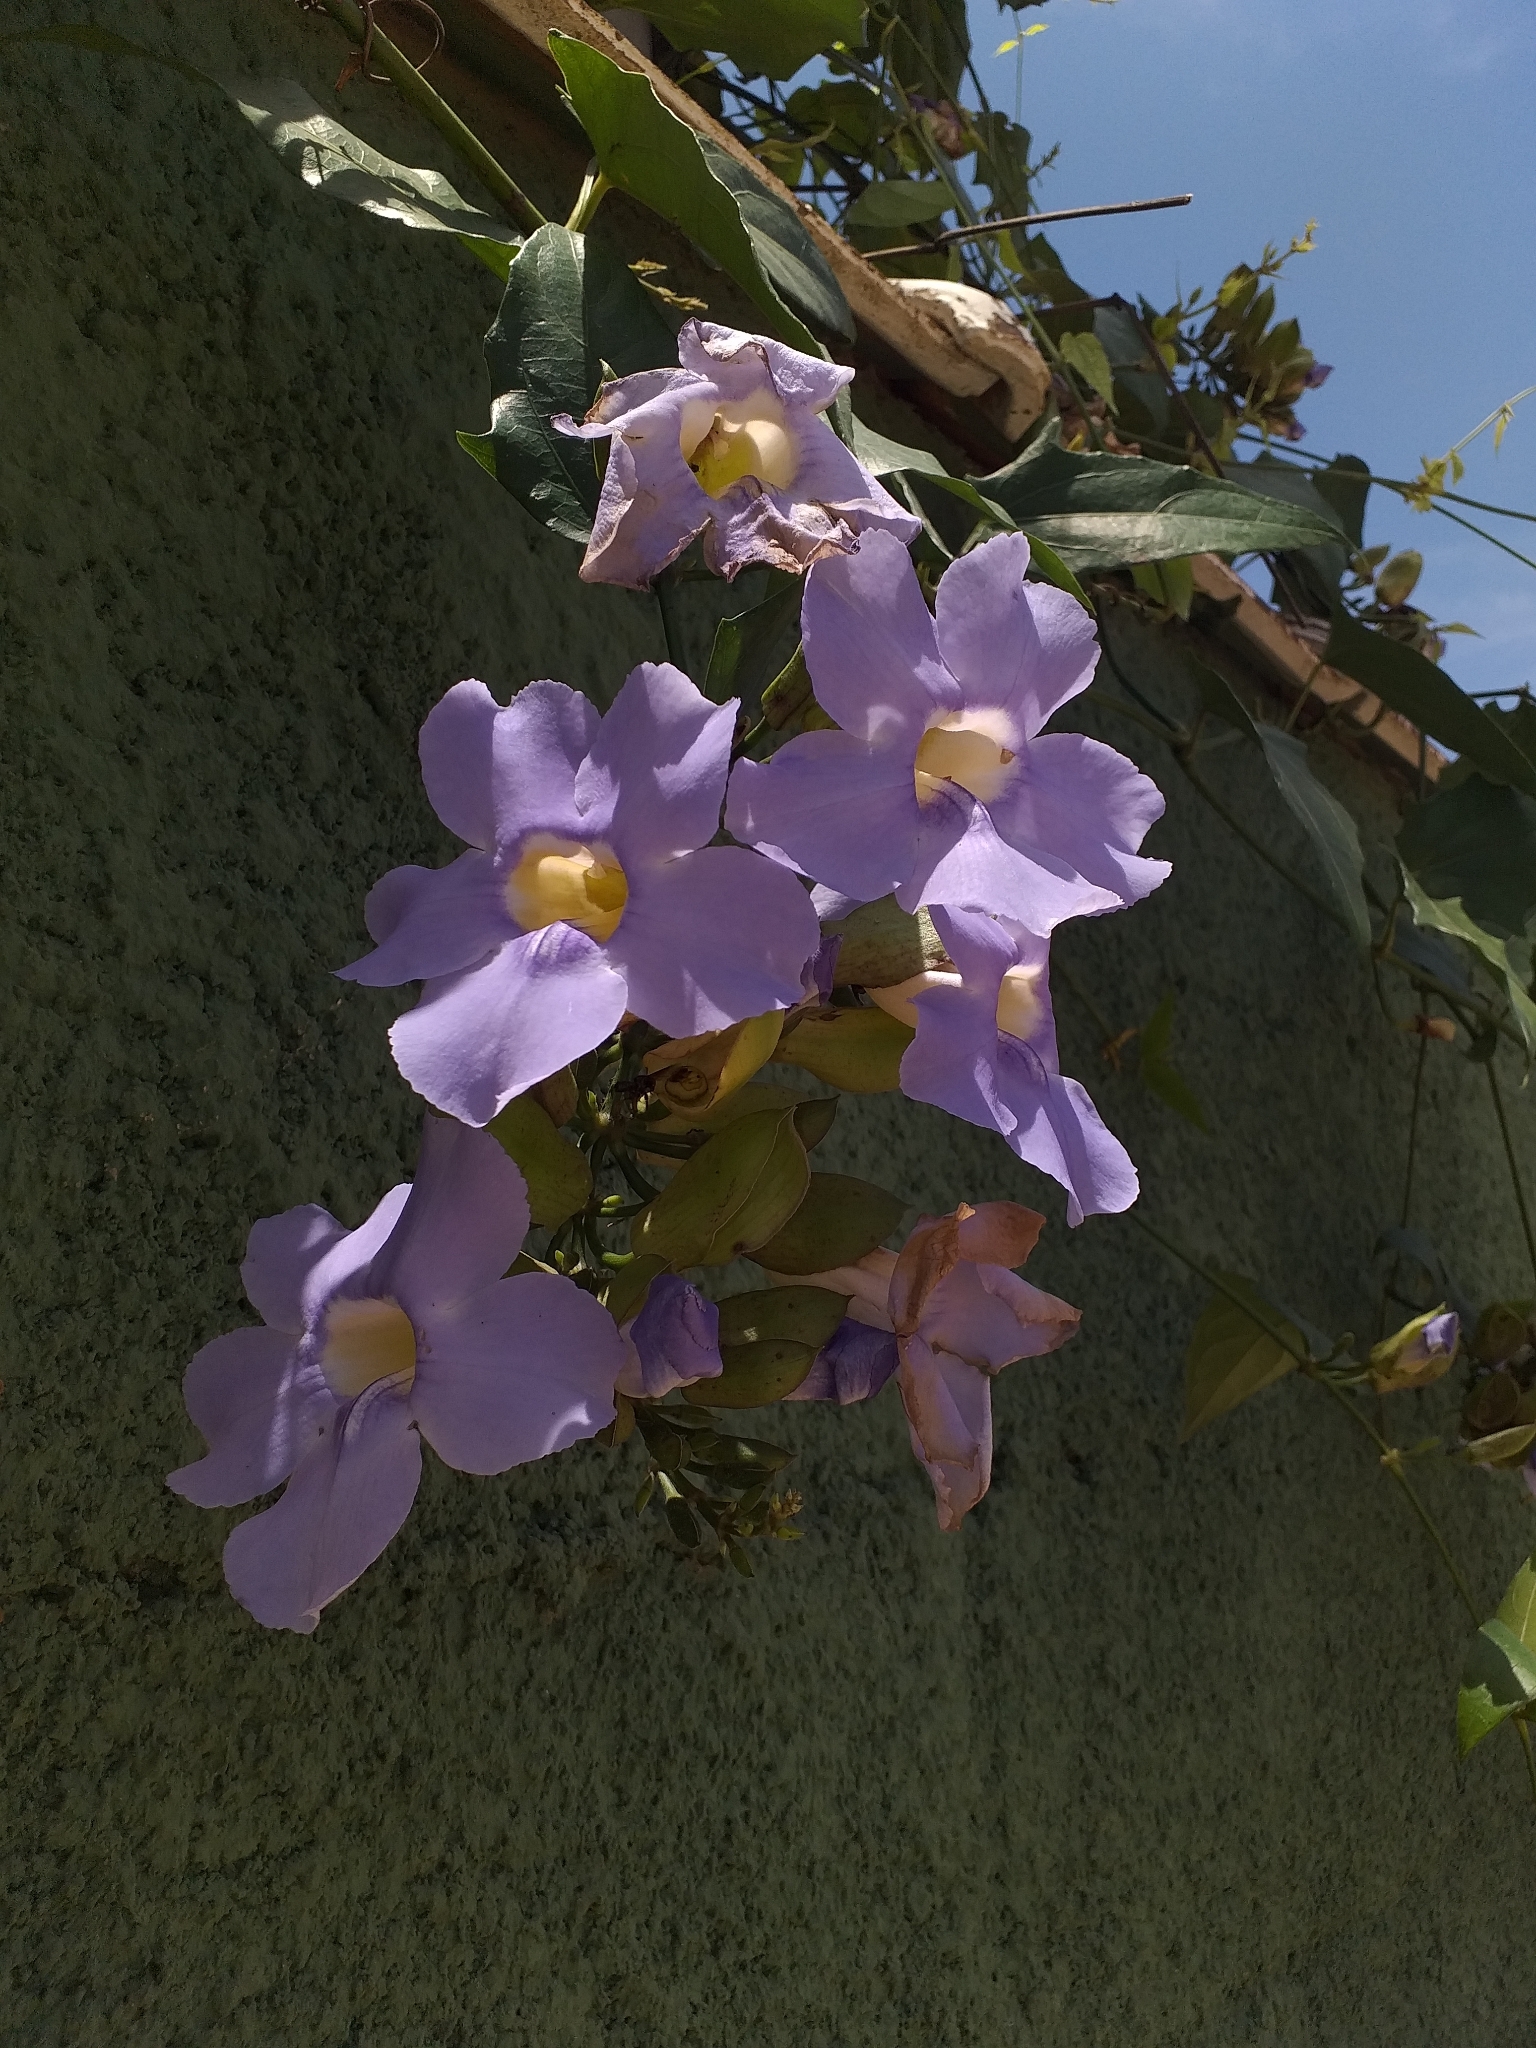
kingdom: Plantae
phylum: Tracheophyta
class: Magnoliopsida
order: Lamiales
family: Acanthaceae
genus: Thunbergia
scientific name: Thunbergia grandiflora
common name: Bengal trumpet
